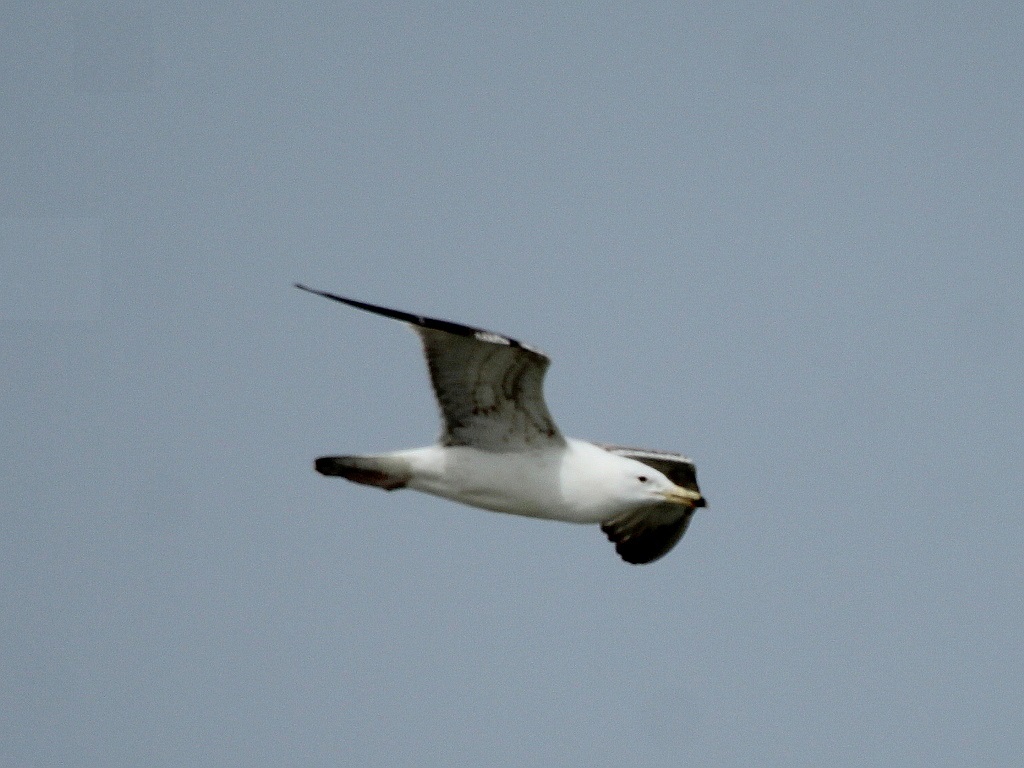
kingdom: Animalia
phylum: Chordata
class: Aves
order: Charadriiformes
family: Laridae
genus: Larus
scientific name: Larus cachinnans
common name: Caspian gull
